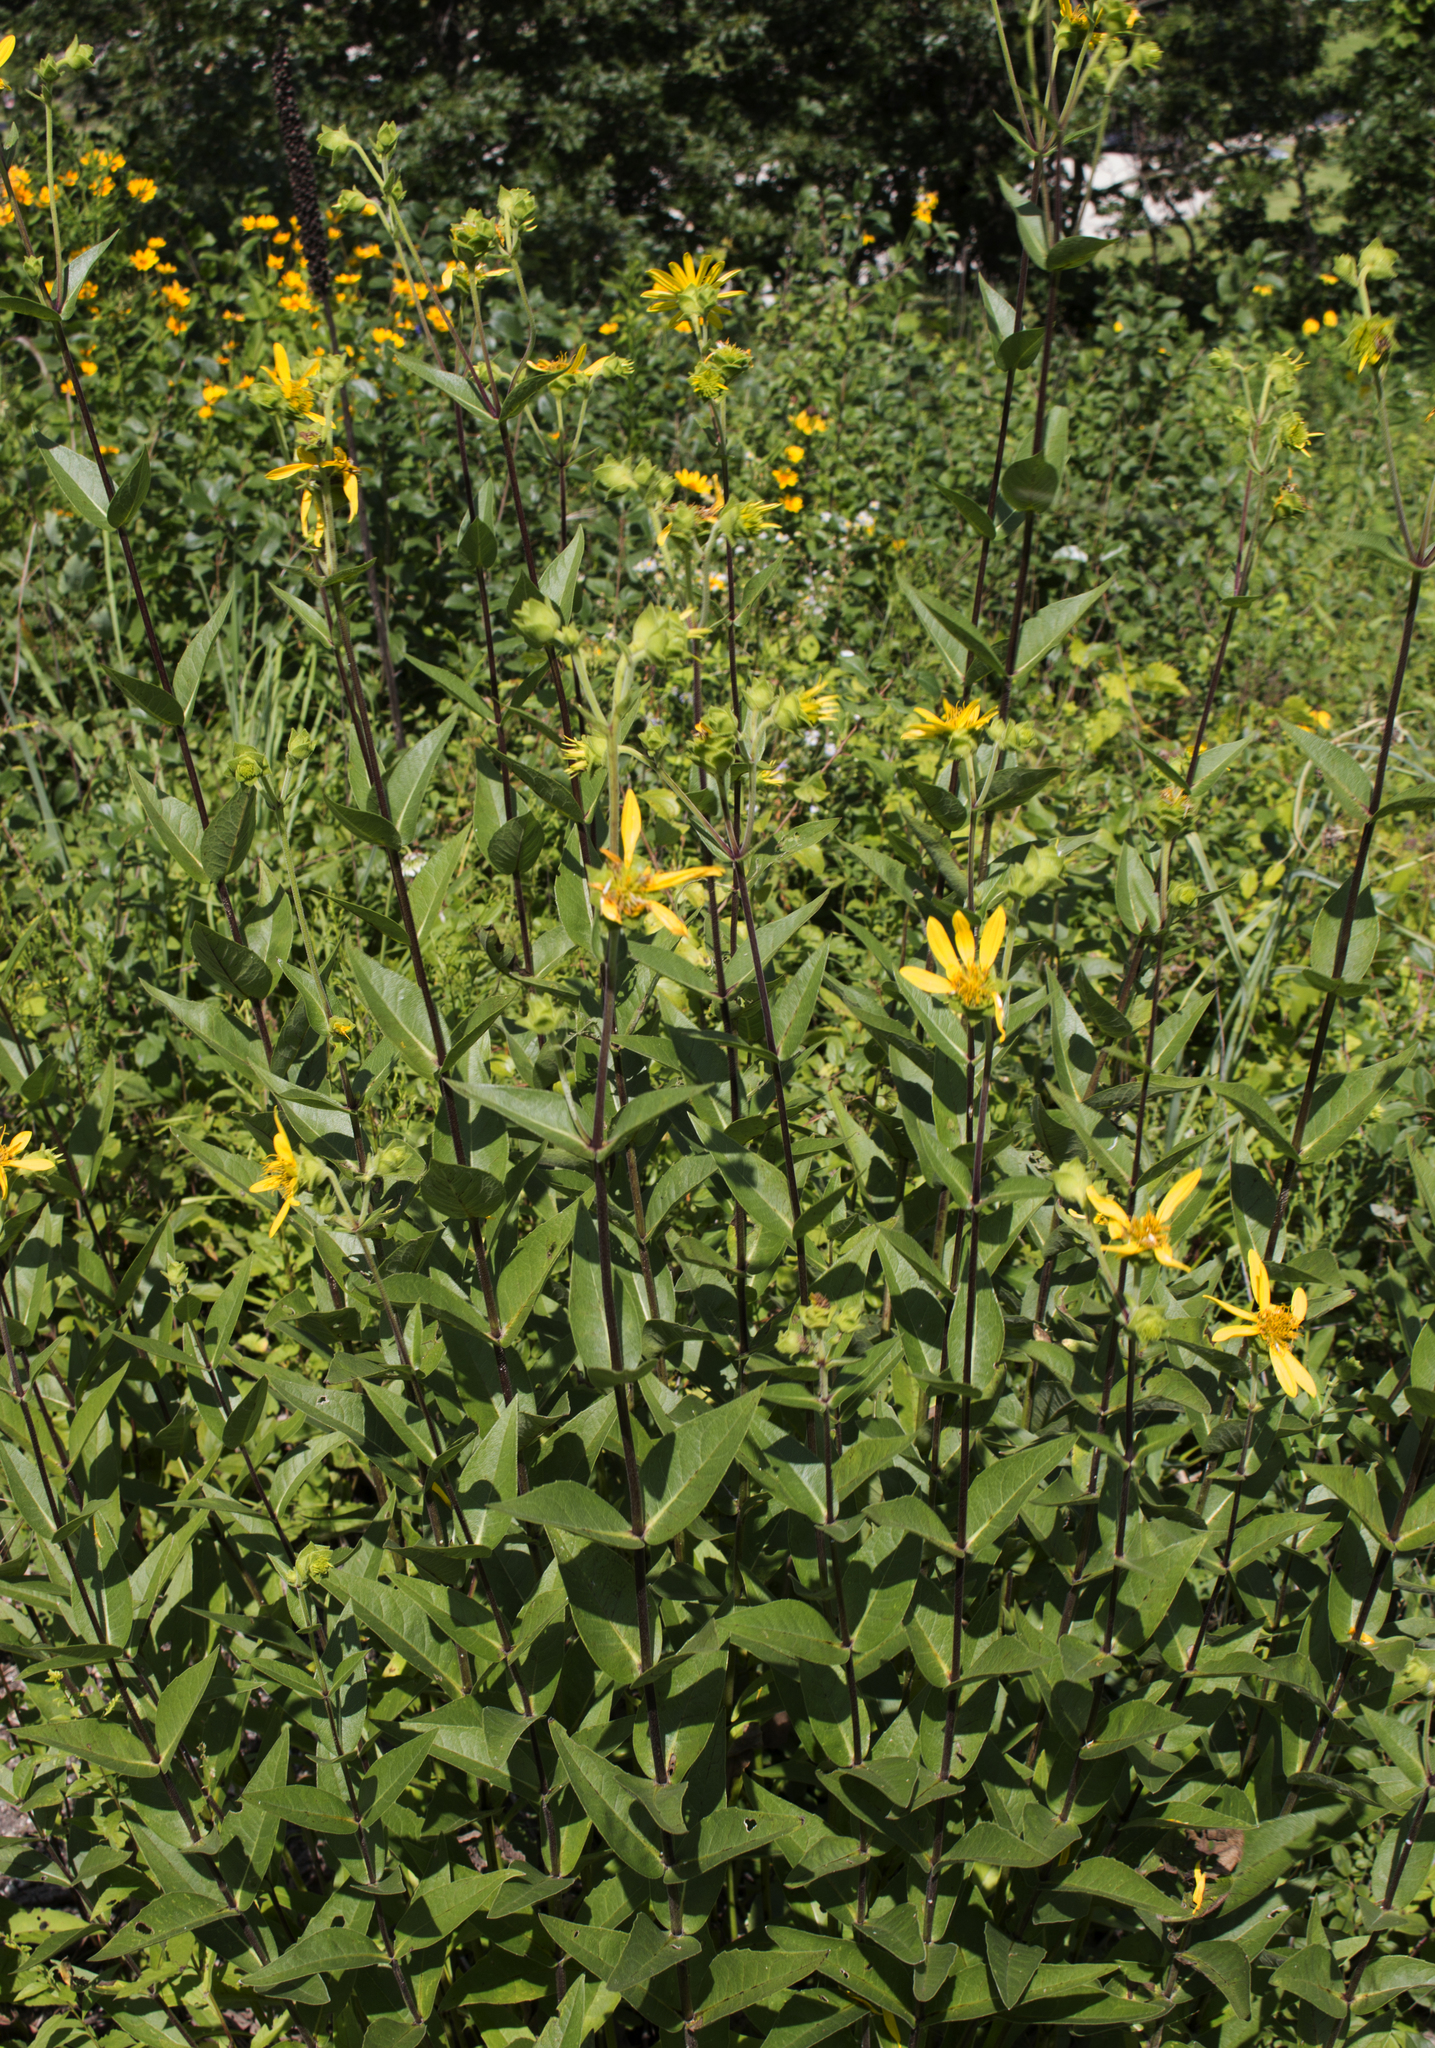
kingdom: Plantae
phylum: Tracheophyta
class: Magnoliopsida
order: Asterales
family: Asteraceae
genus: Silphium
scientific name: Silphium integrifolium
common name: Whole-leaf rosinweed
